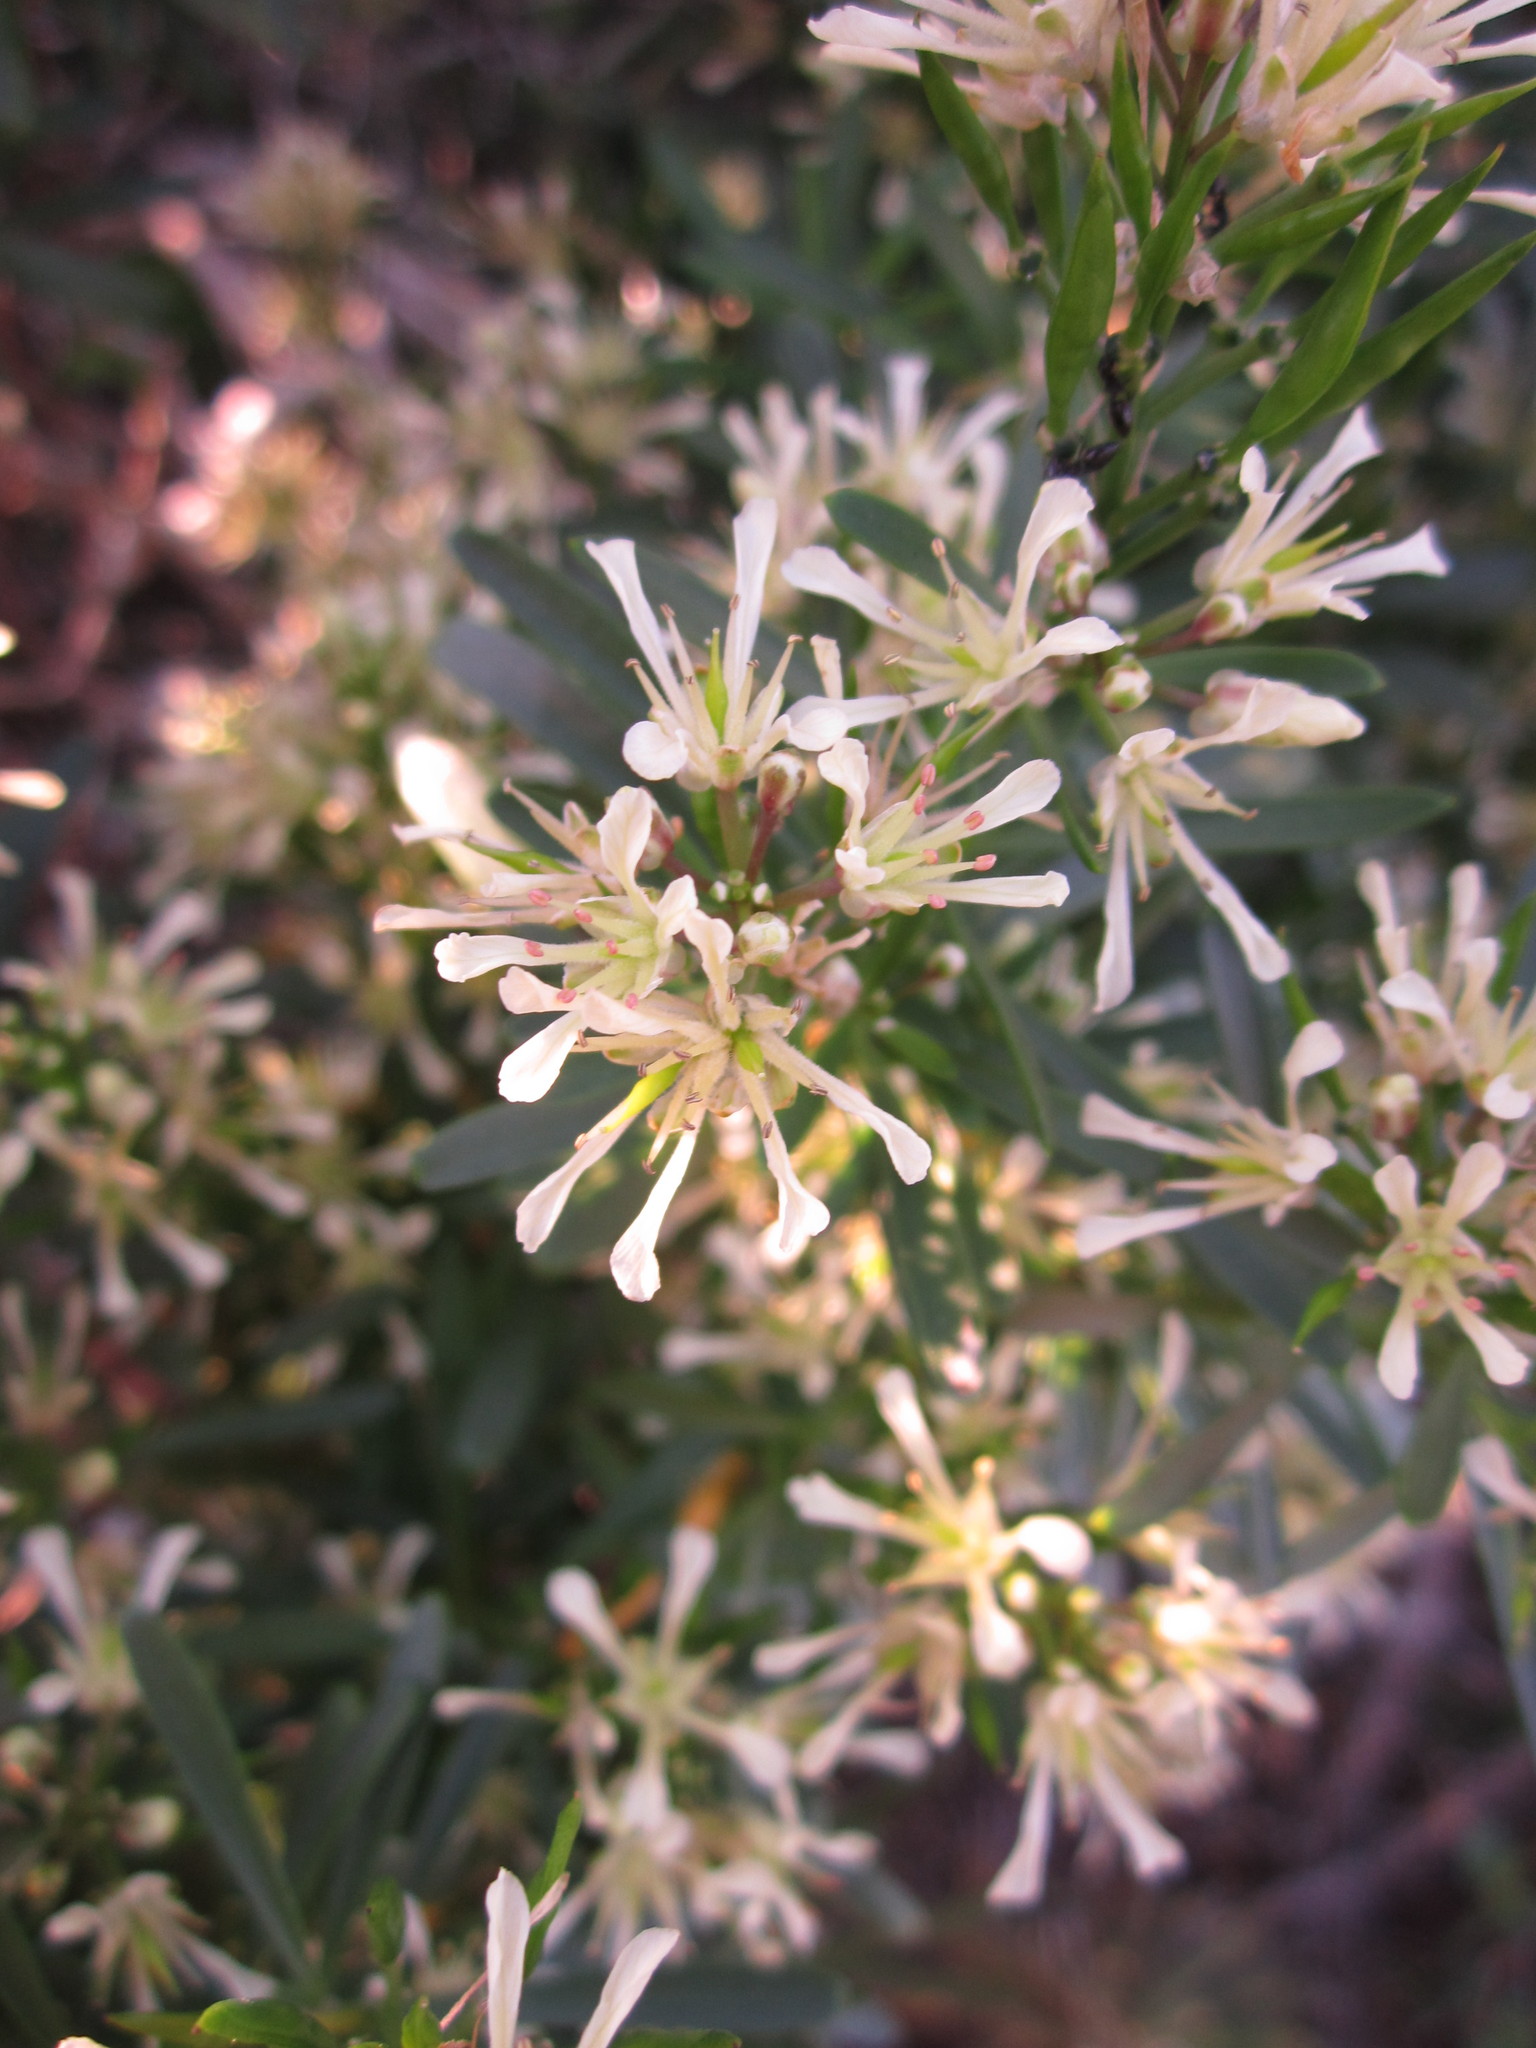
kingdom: Plantae
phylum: Tracheophyta
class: Magnoliopsida
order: Brassicales
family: Brassicaceae
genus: Heliophila
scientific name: Heliophila brachycarpa
